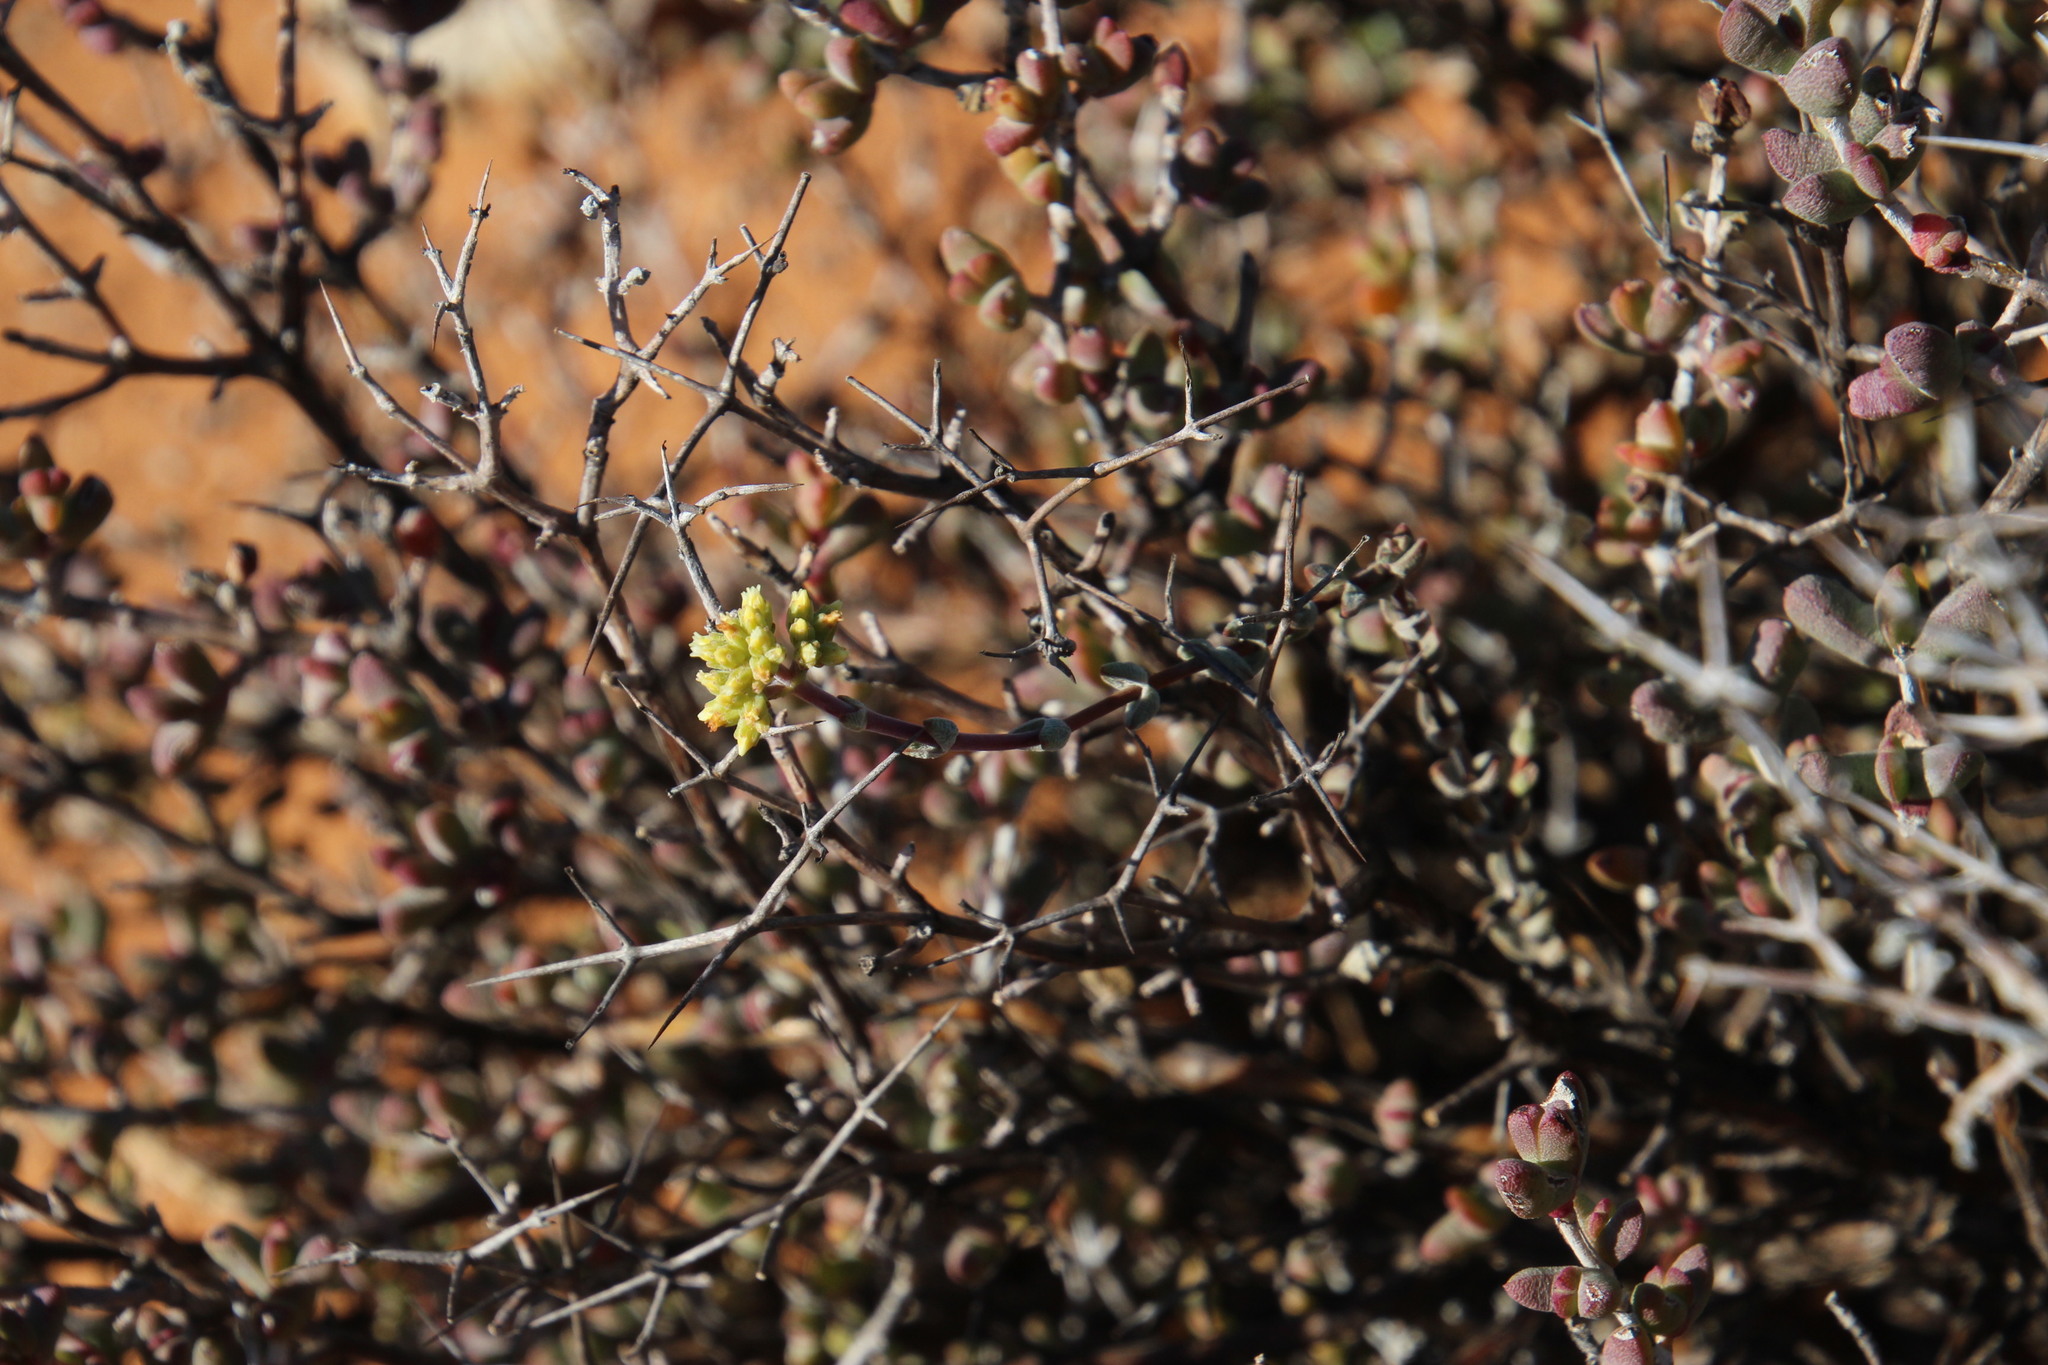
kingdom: Plantae
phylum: Tracheophyta
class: Magnoliopsida
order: Saxifragales
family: Crassulaceae
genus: Crassula
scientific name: Crassula subaphylla
